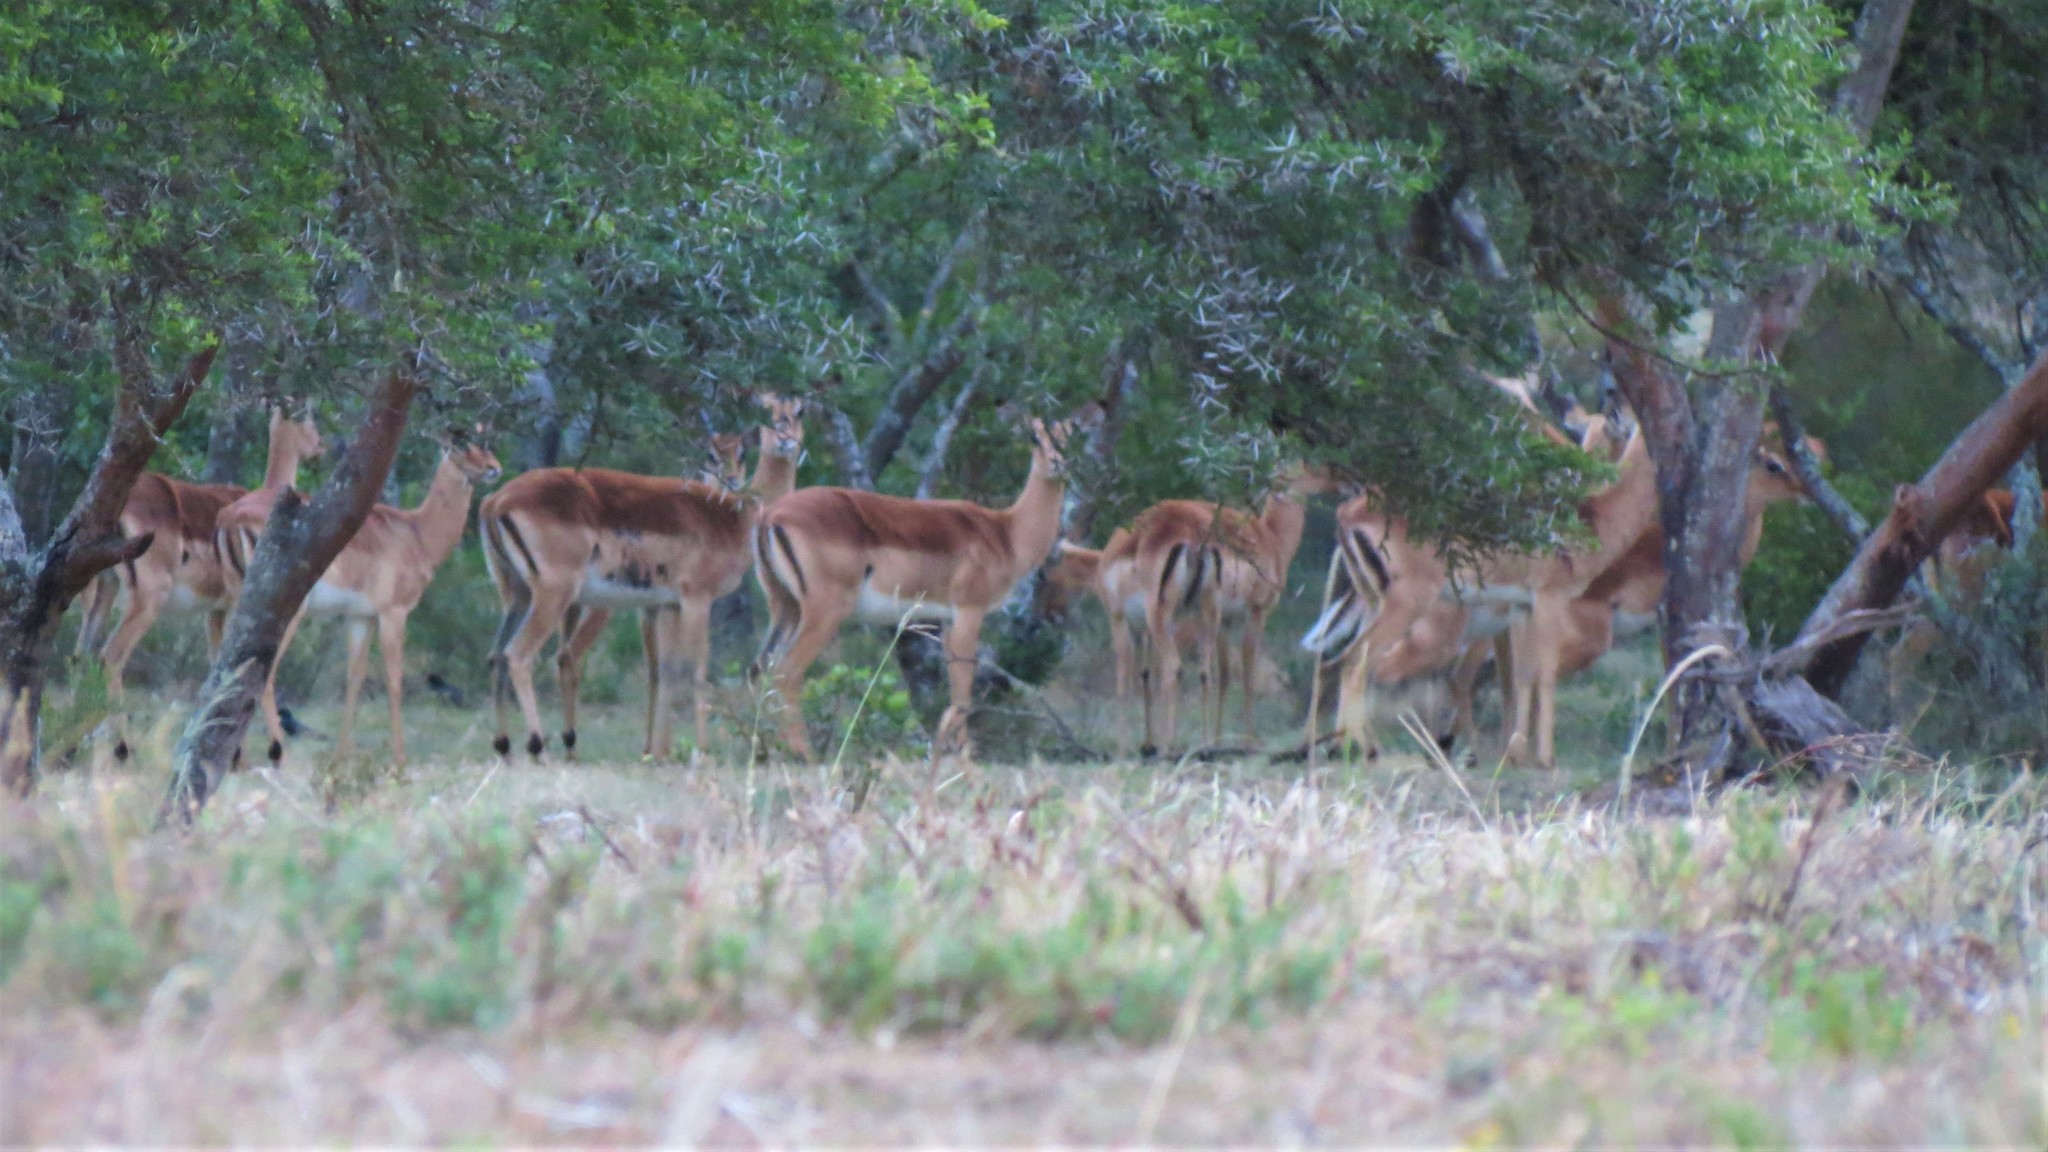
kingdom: Animalia
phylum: Chordata
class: Mammalia
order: Artiodactyla
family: Bovidae
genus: Aepyceros
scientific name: Aepyceros melampus
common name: Impala
